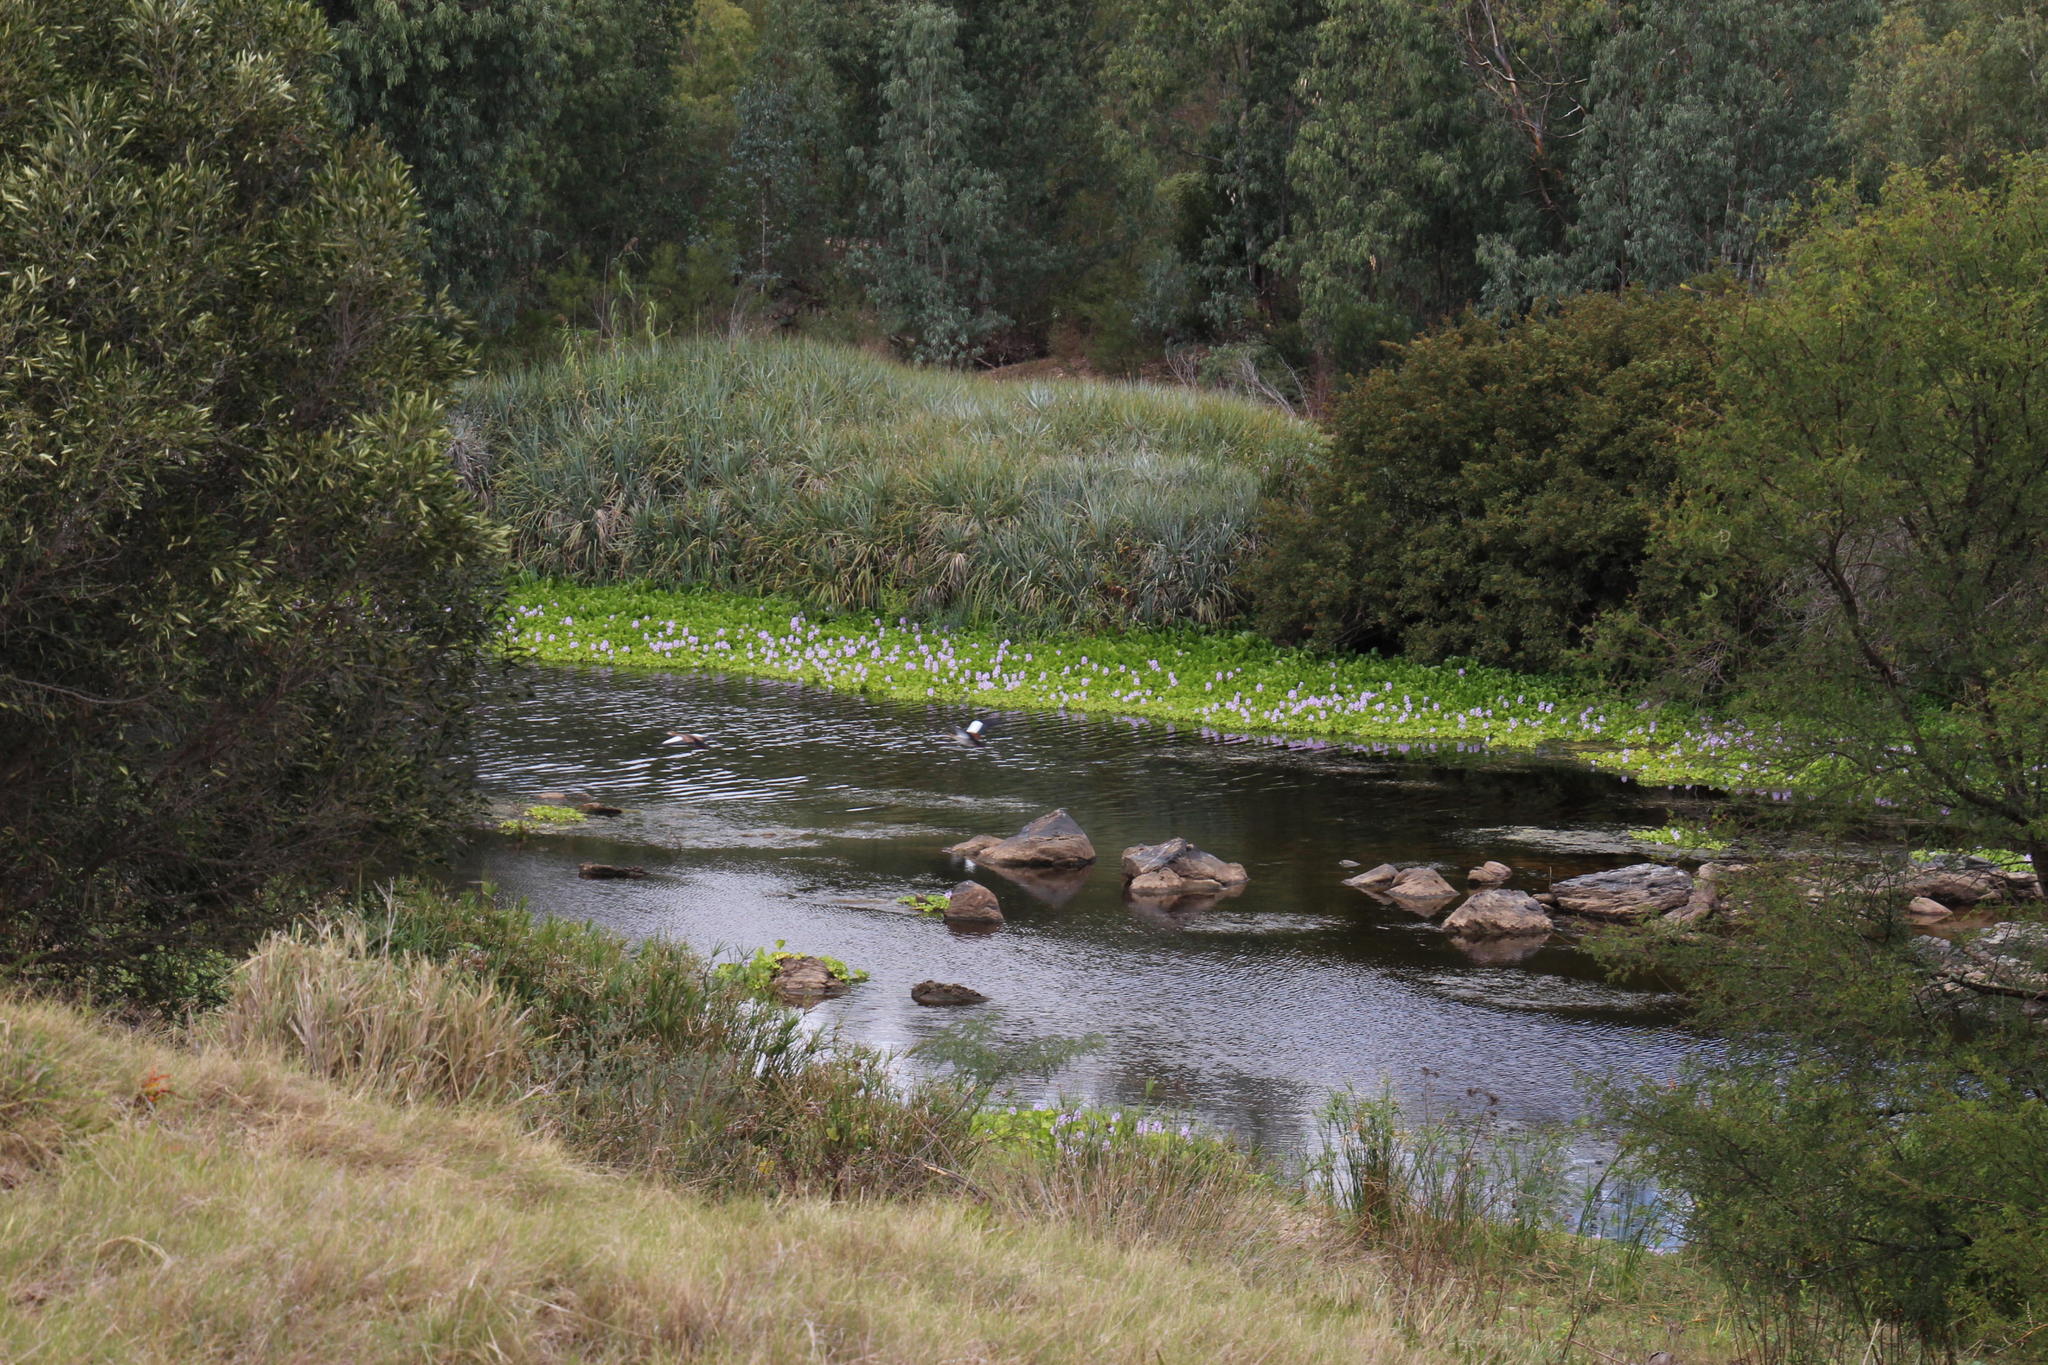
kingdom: Plantae
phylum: Tracheophyta
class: Liliopsida
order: Poales
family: Thurniaceae
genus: Prionium
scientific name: Prionium serratum
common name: Palmiet
